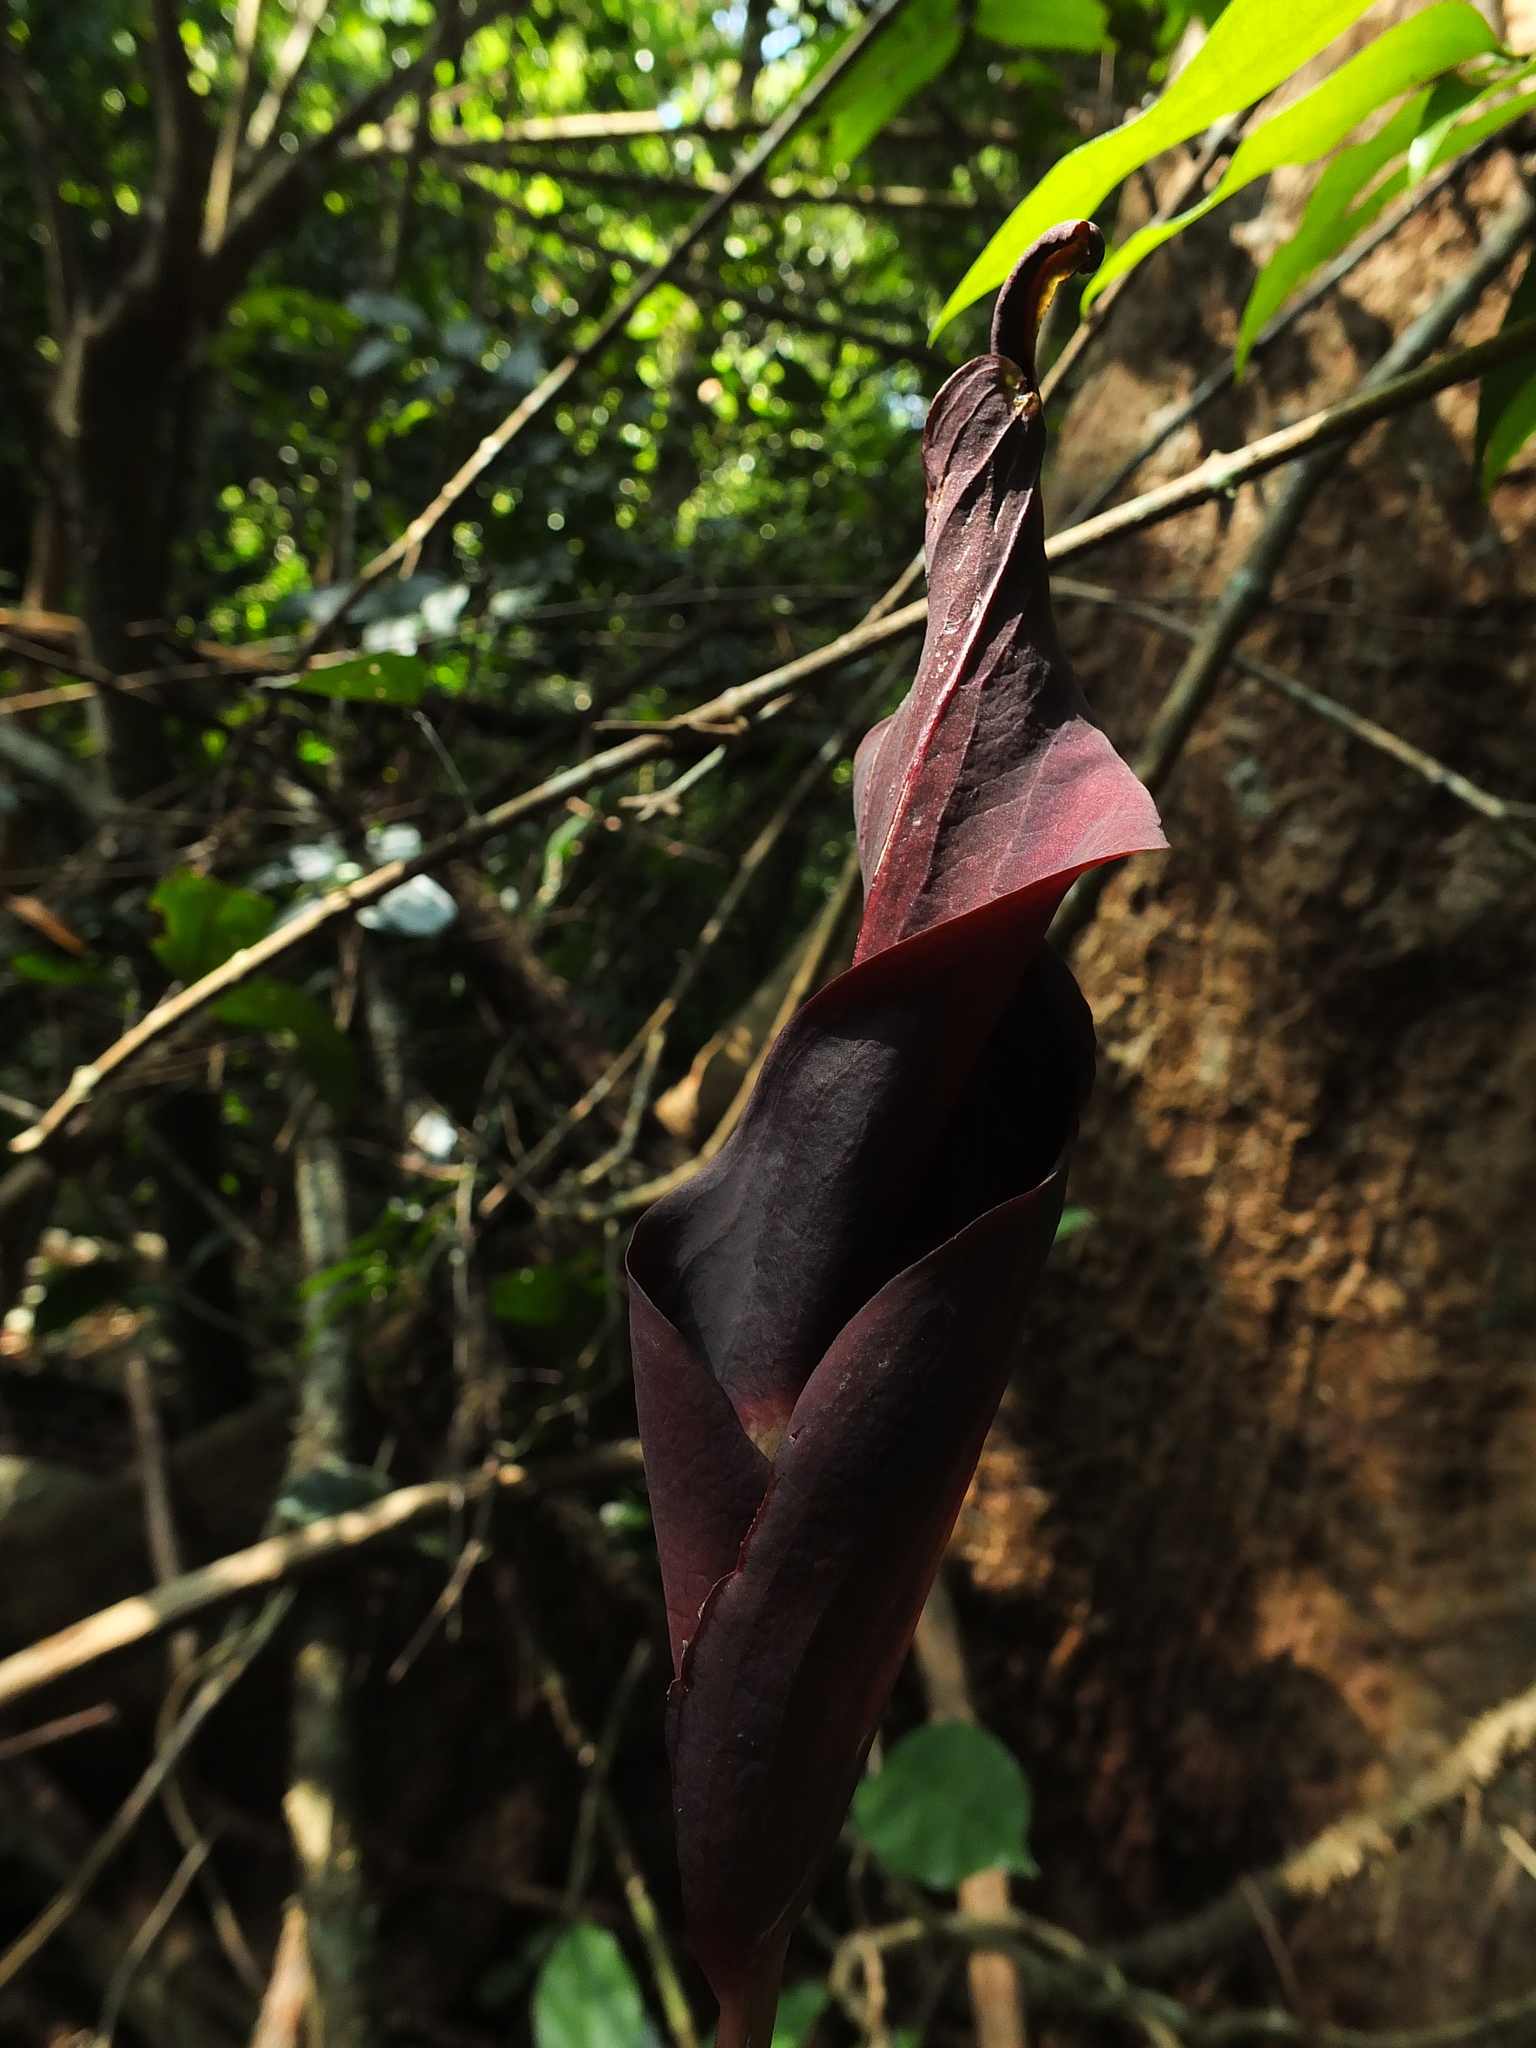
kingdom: Plantae
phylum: Tracheophyta
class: Liliopsida
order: Alismatales
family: Araceae
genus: Anaphyllum
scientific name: Anaphyllum wightii
